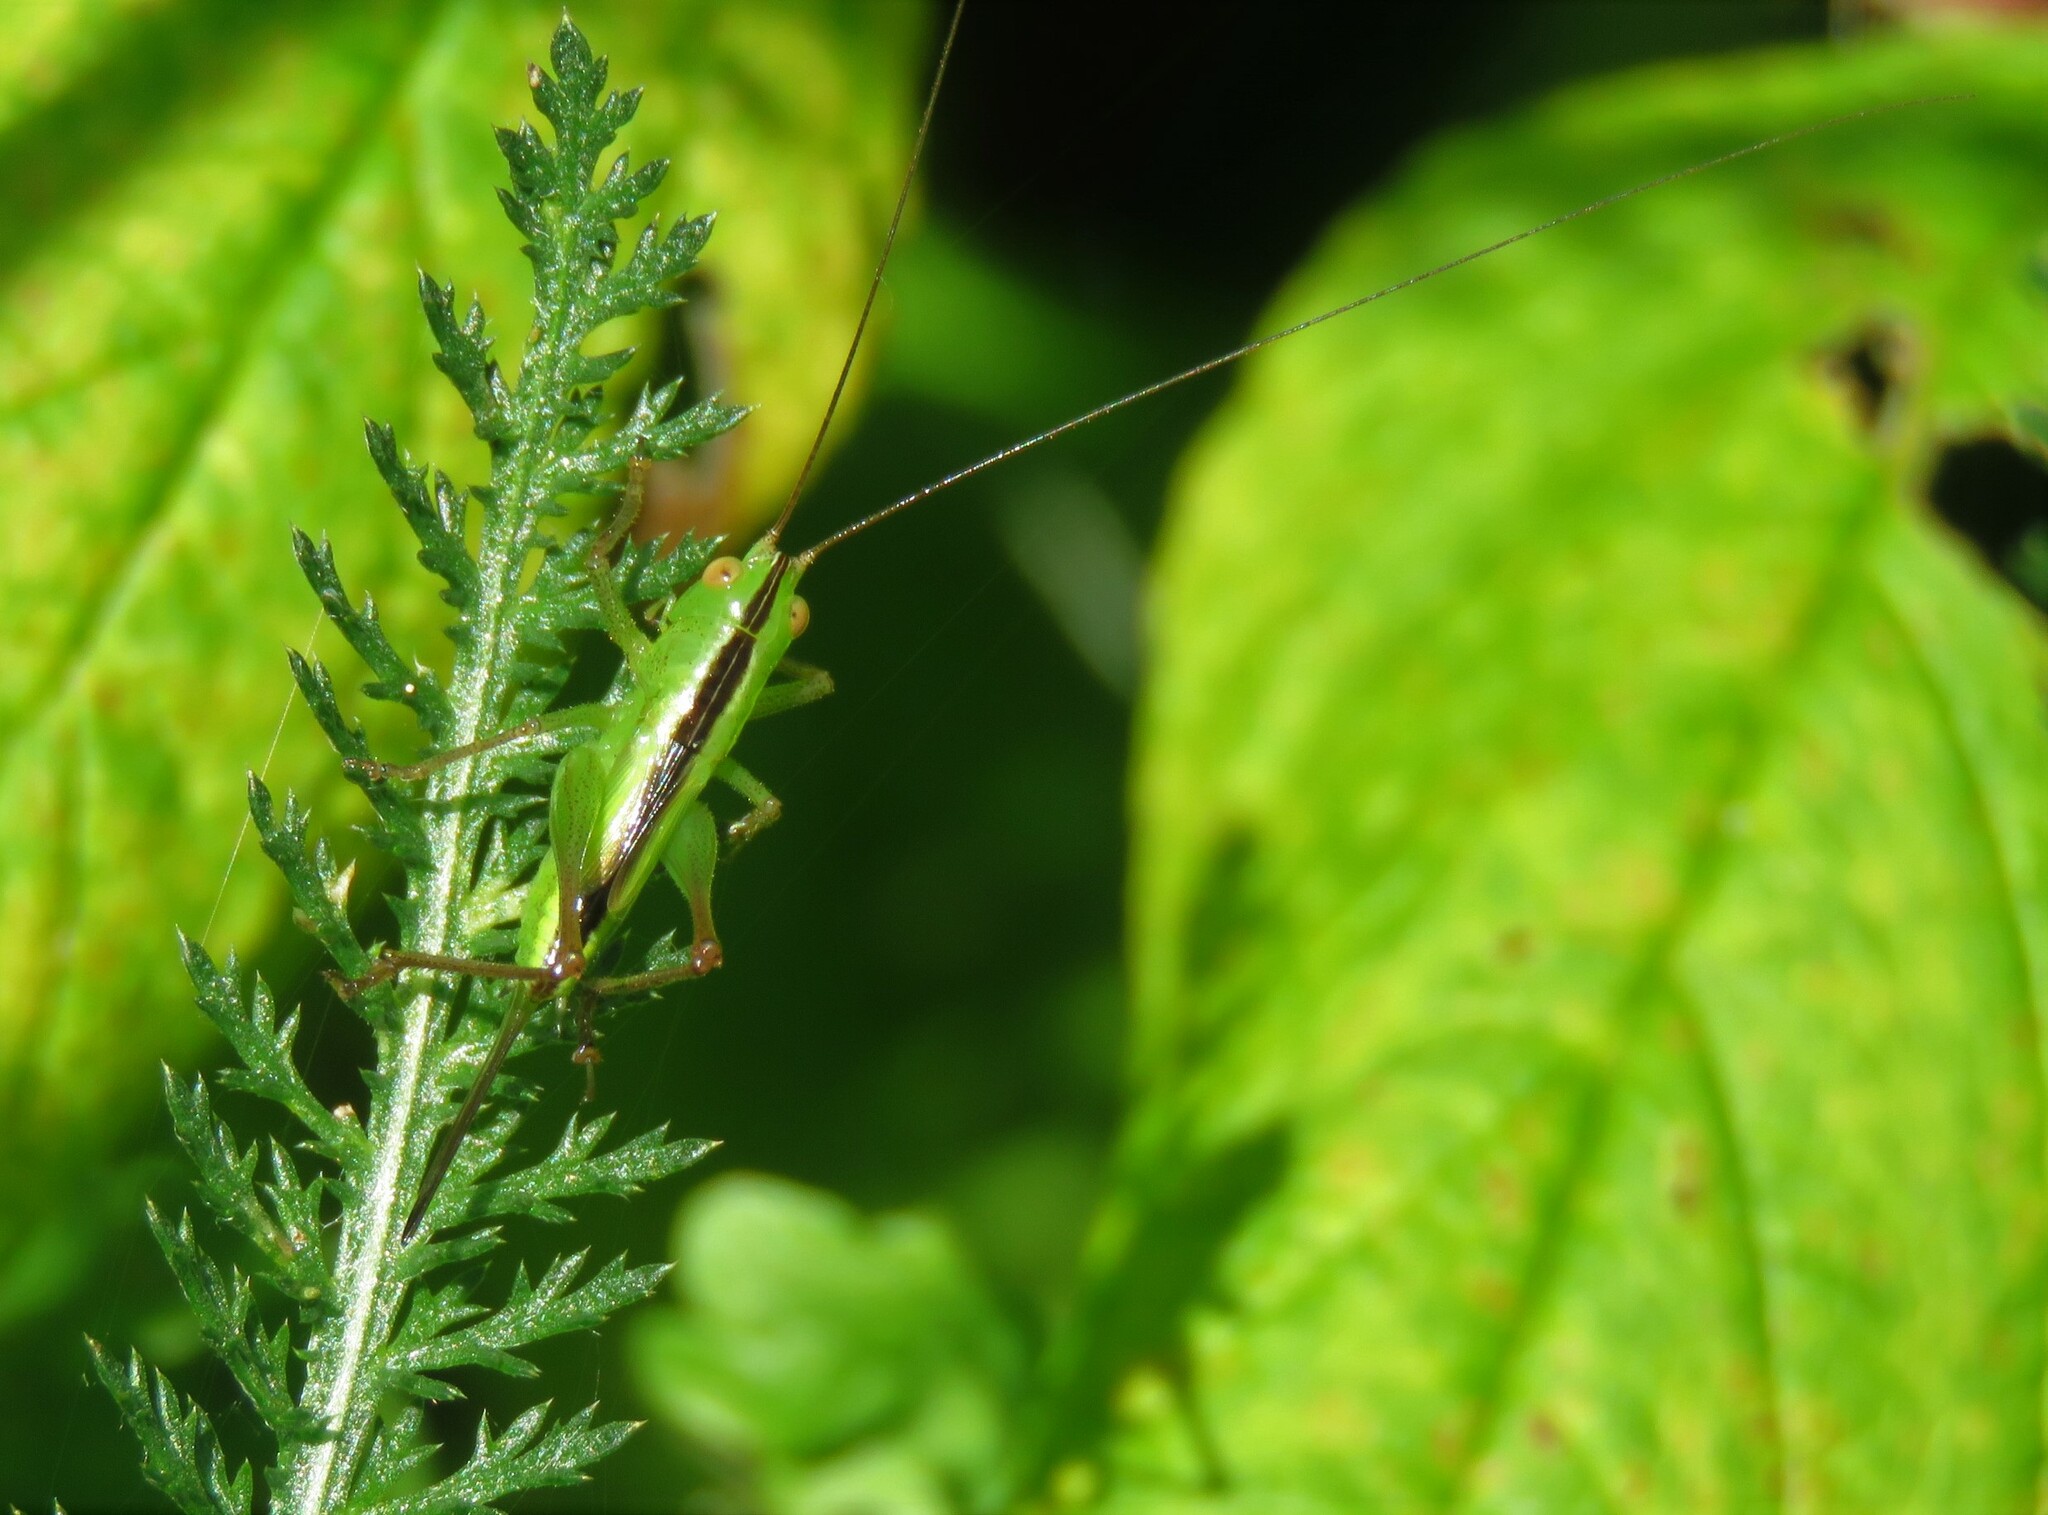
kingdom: Animalia
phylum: Arthropoda
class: Insecta
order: Orthoptera
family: Tettigoniidae
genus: Conocephalus
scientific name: Conocephalus fasciatus
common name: Slender meadow katydid
